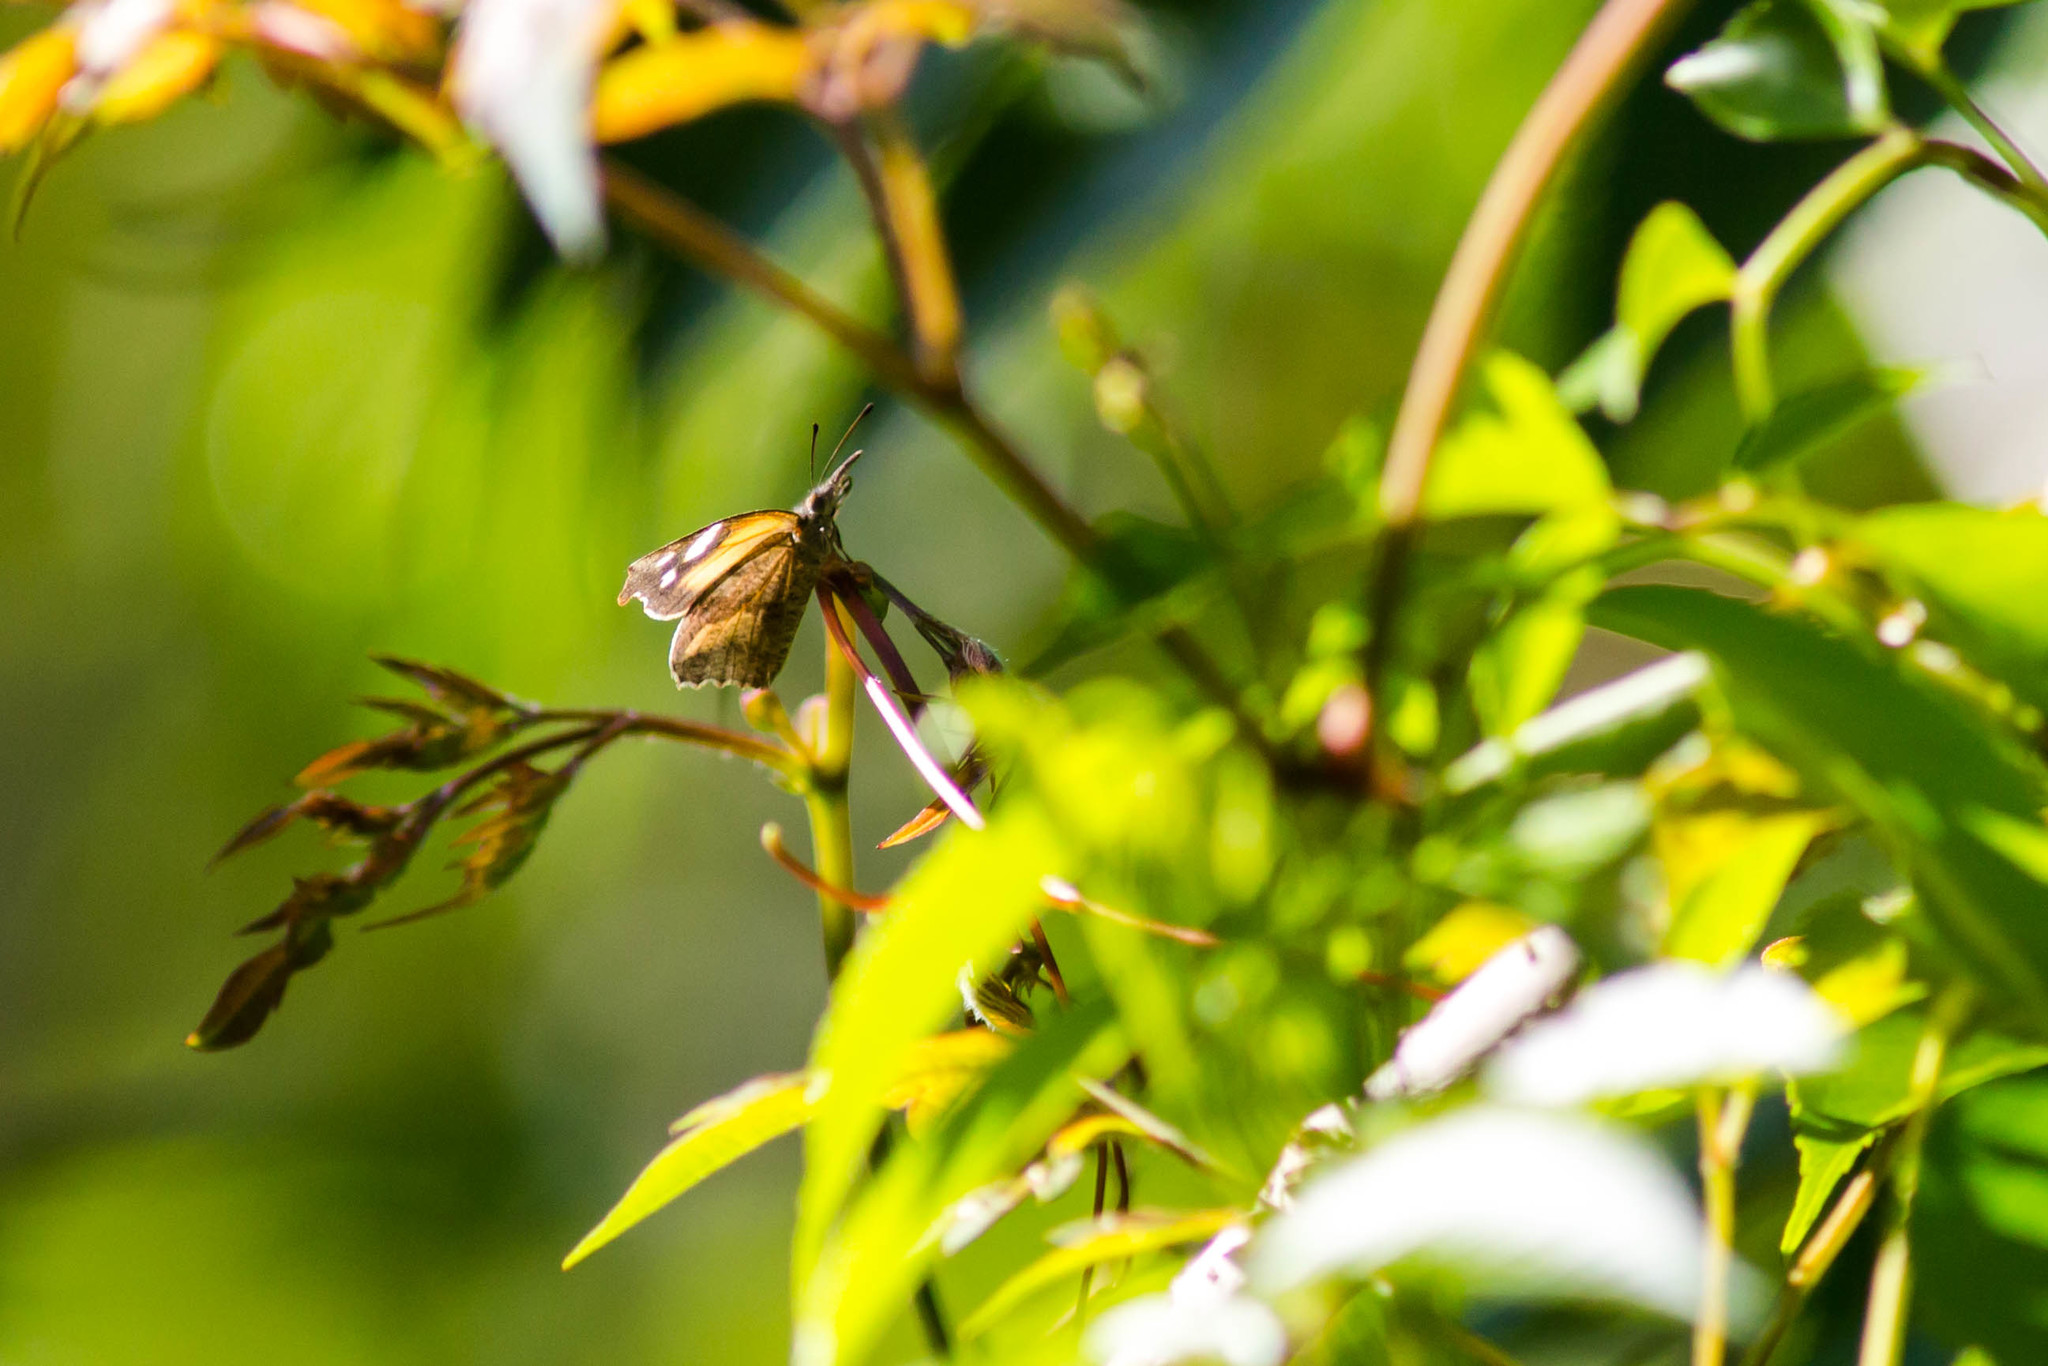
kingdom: Animalia
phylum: Arthropoda
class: Insecta
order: Lepidoptera
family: Nymphalidae
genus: Libytheana
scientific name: Libytheana carinenta
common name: American snout
